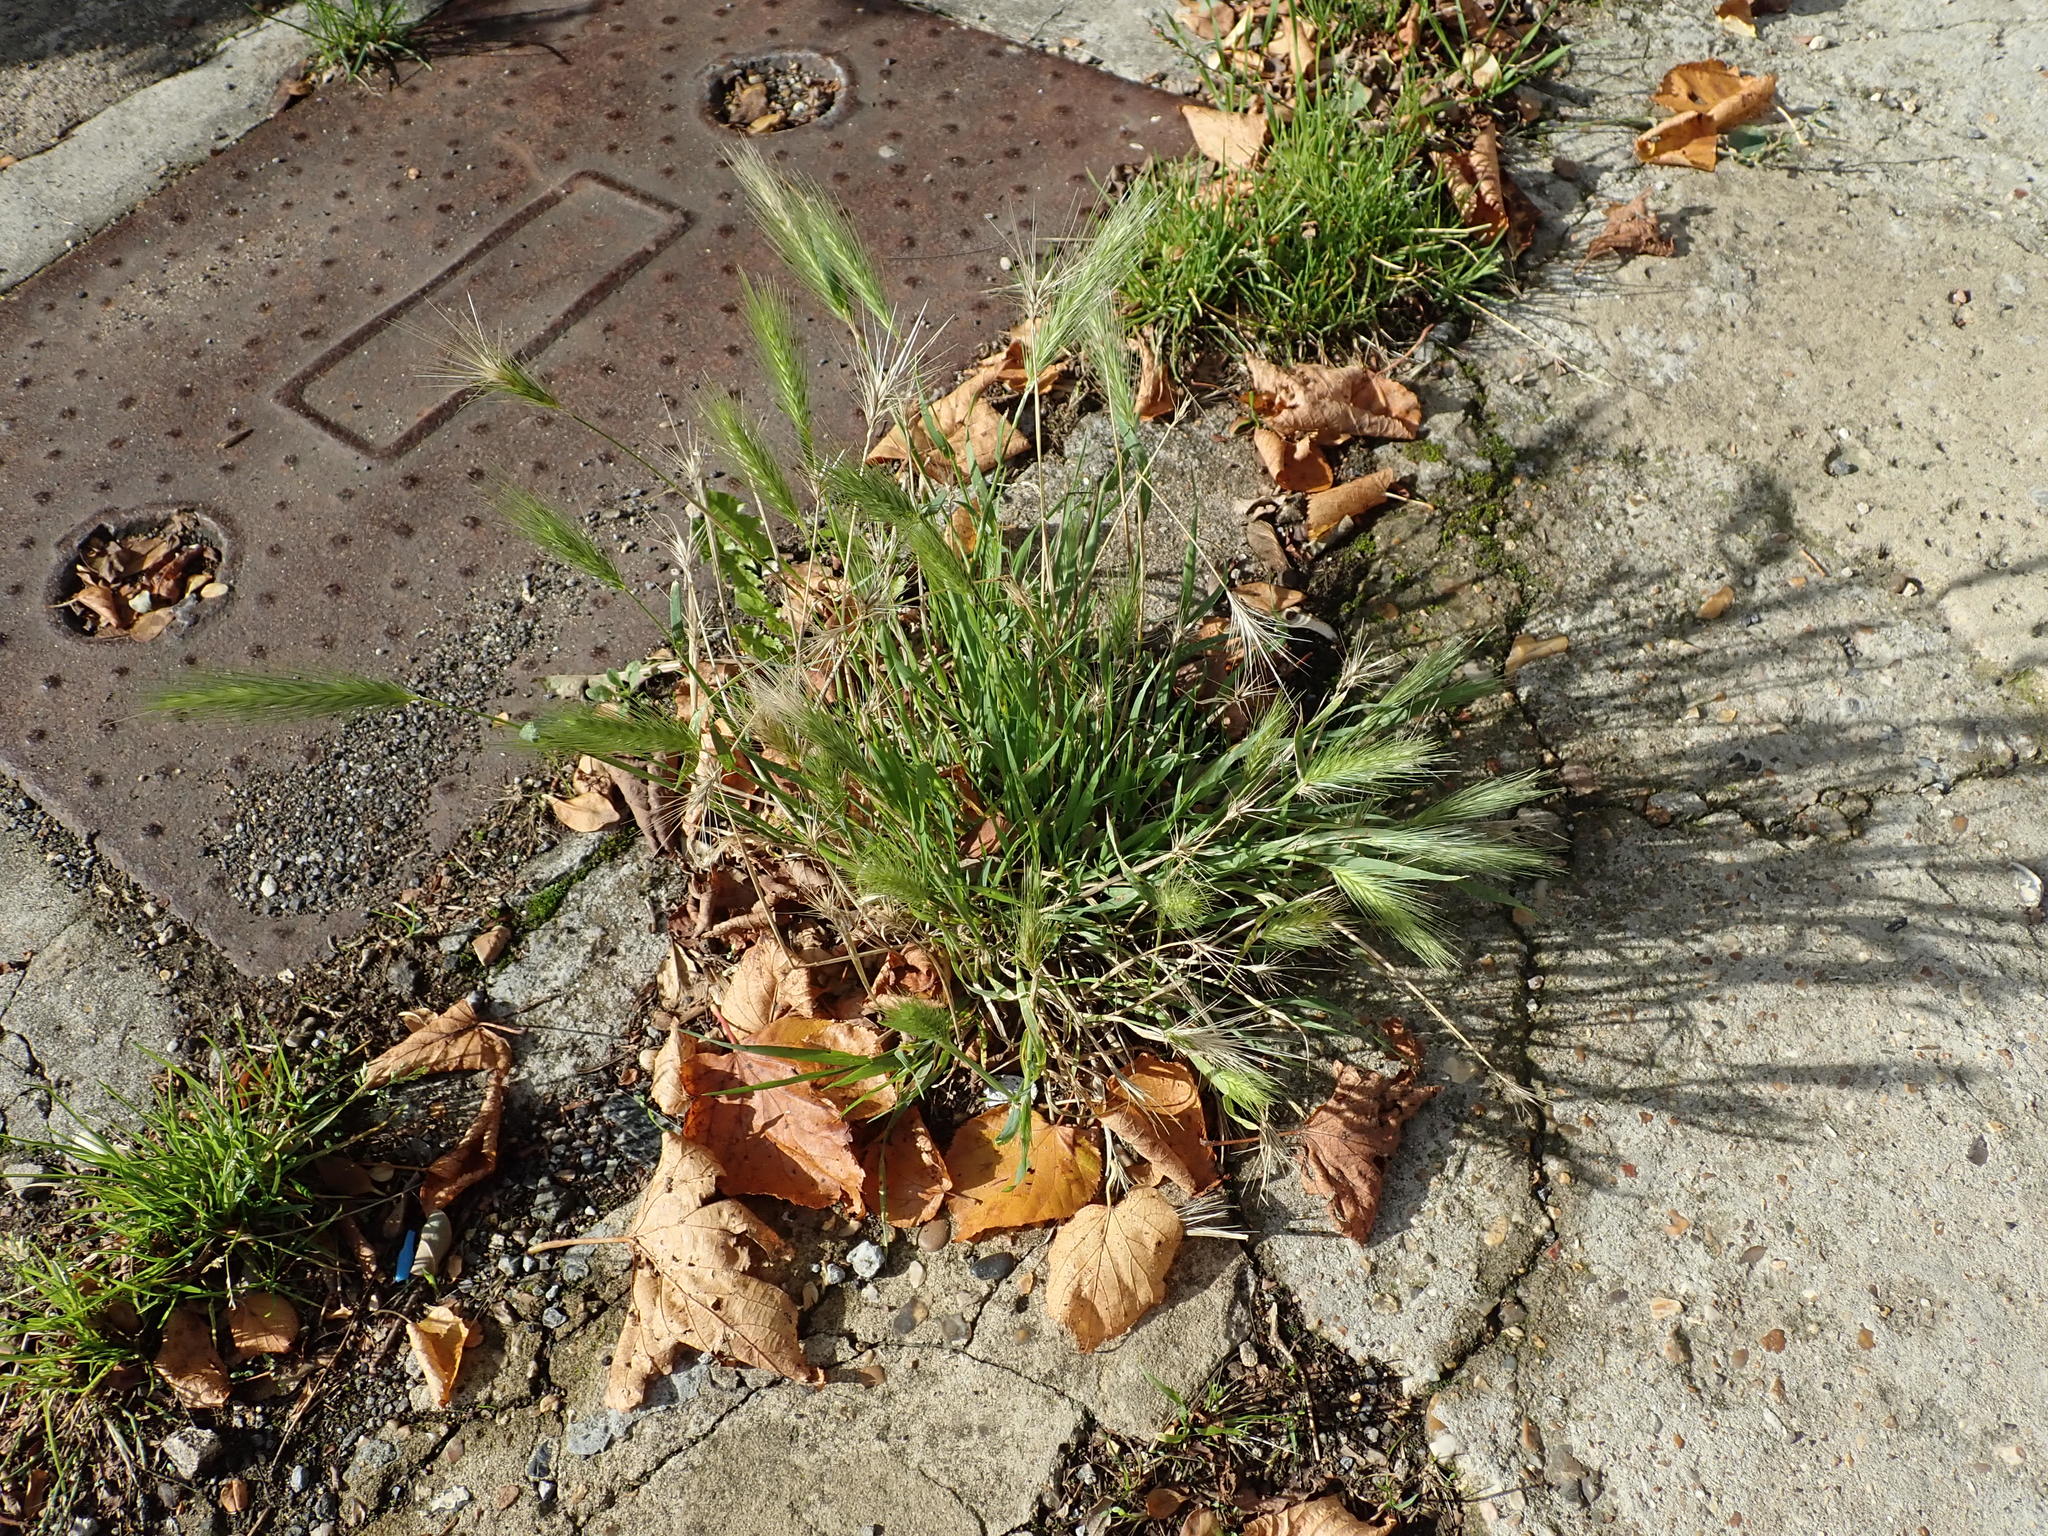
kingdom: Plantae
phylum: Tracheophyta
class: Liliopsida
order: Poales
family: Poaceae
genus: Hordeum
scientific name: Hordeum murinum
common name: Wall barley
